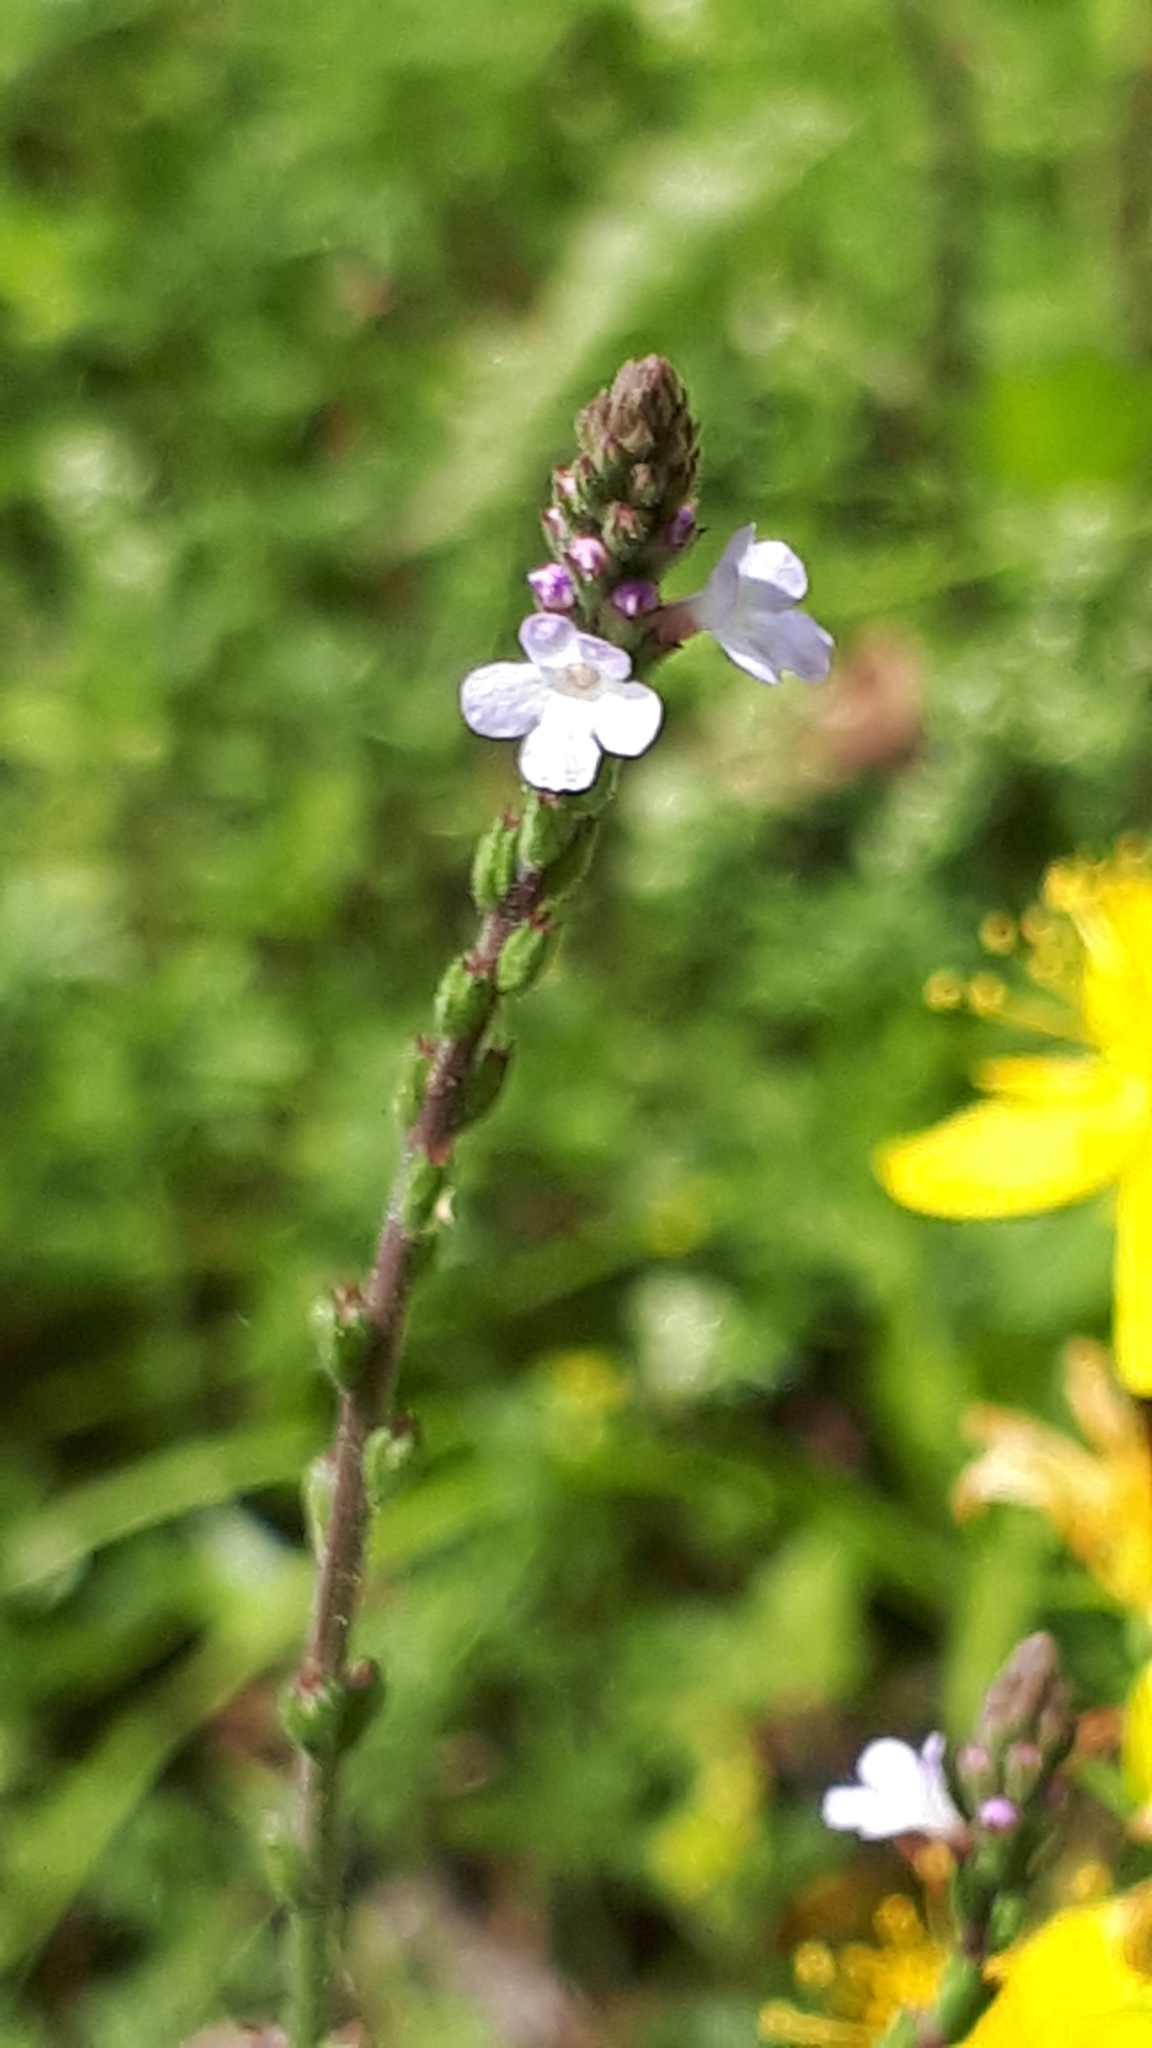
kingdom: Plantae
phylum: Tracheophyta
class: Magnoliopsida
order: Lamiales
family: Verbenaceae
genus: Verbena
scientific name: Verbena officinalis
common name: Vervain
